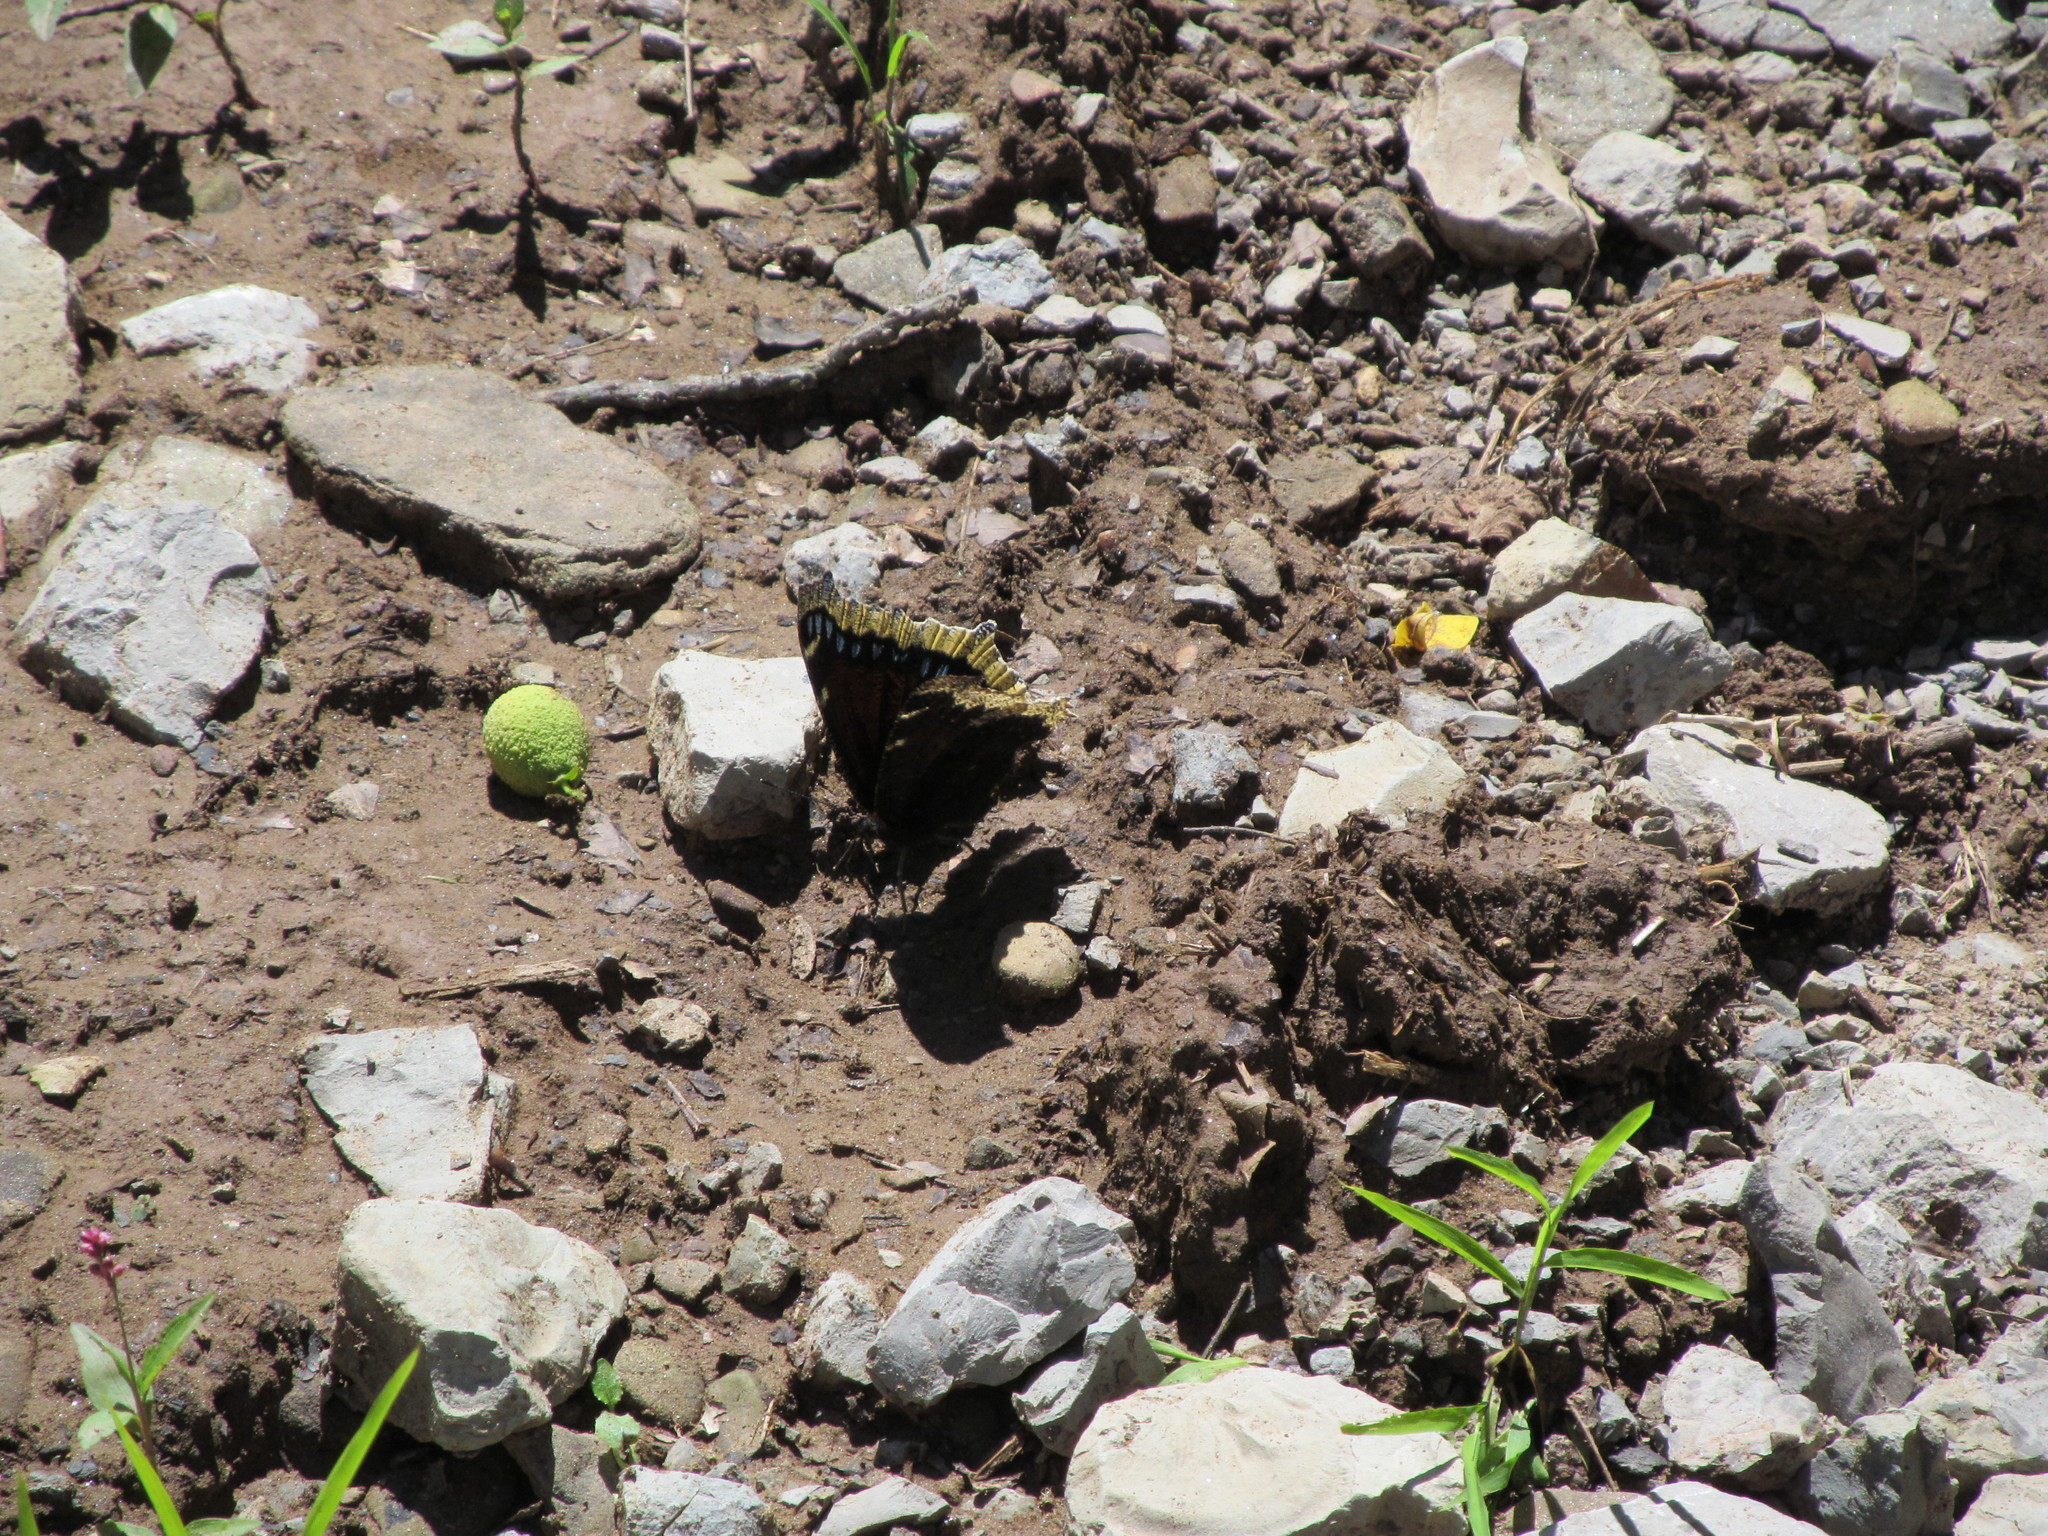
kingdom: Animalia
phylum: Arthropoda
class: Insecta
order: Lepidoptera
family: Nymphalidae
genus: Nymphalis
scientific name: Nymphalis antiopa
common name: Camberwell beauty
